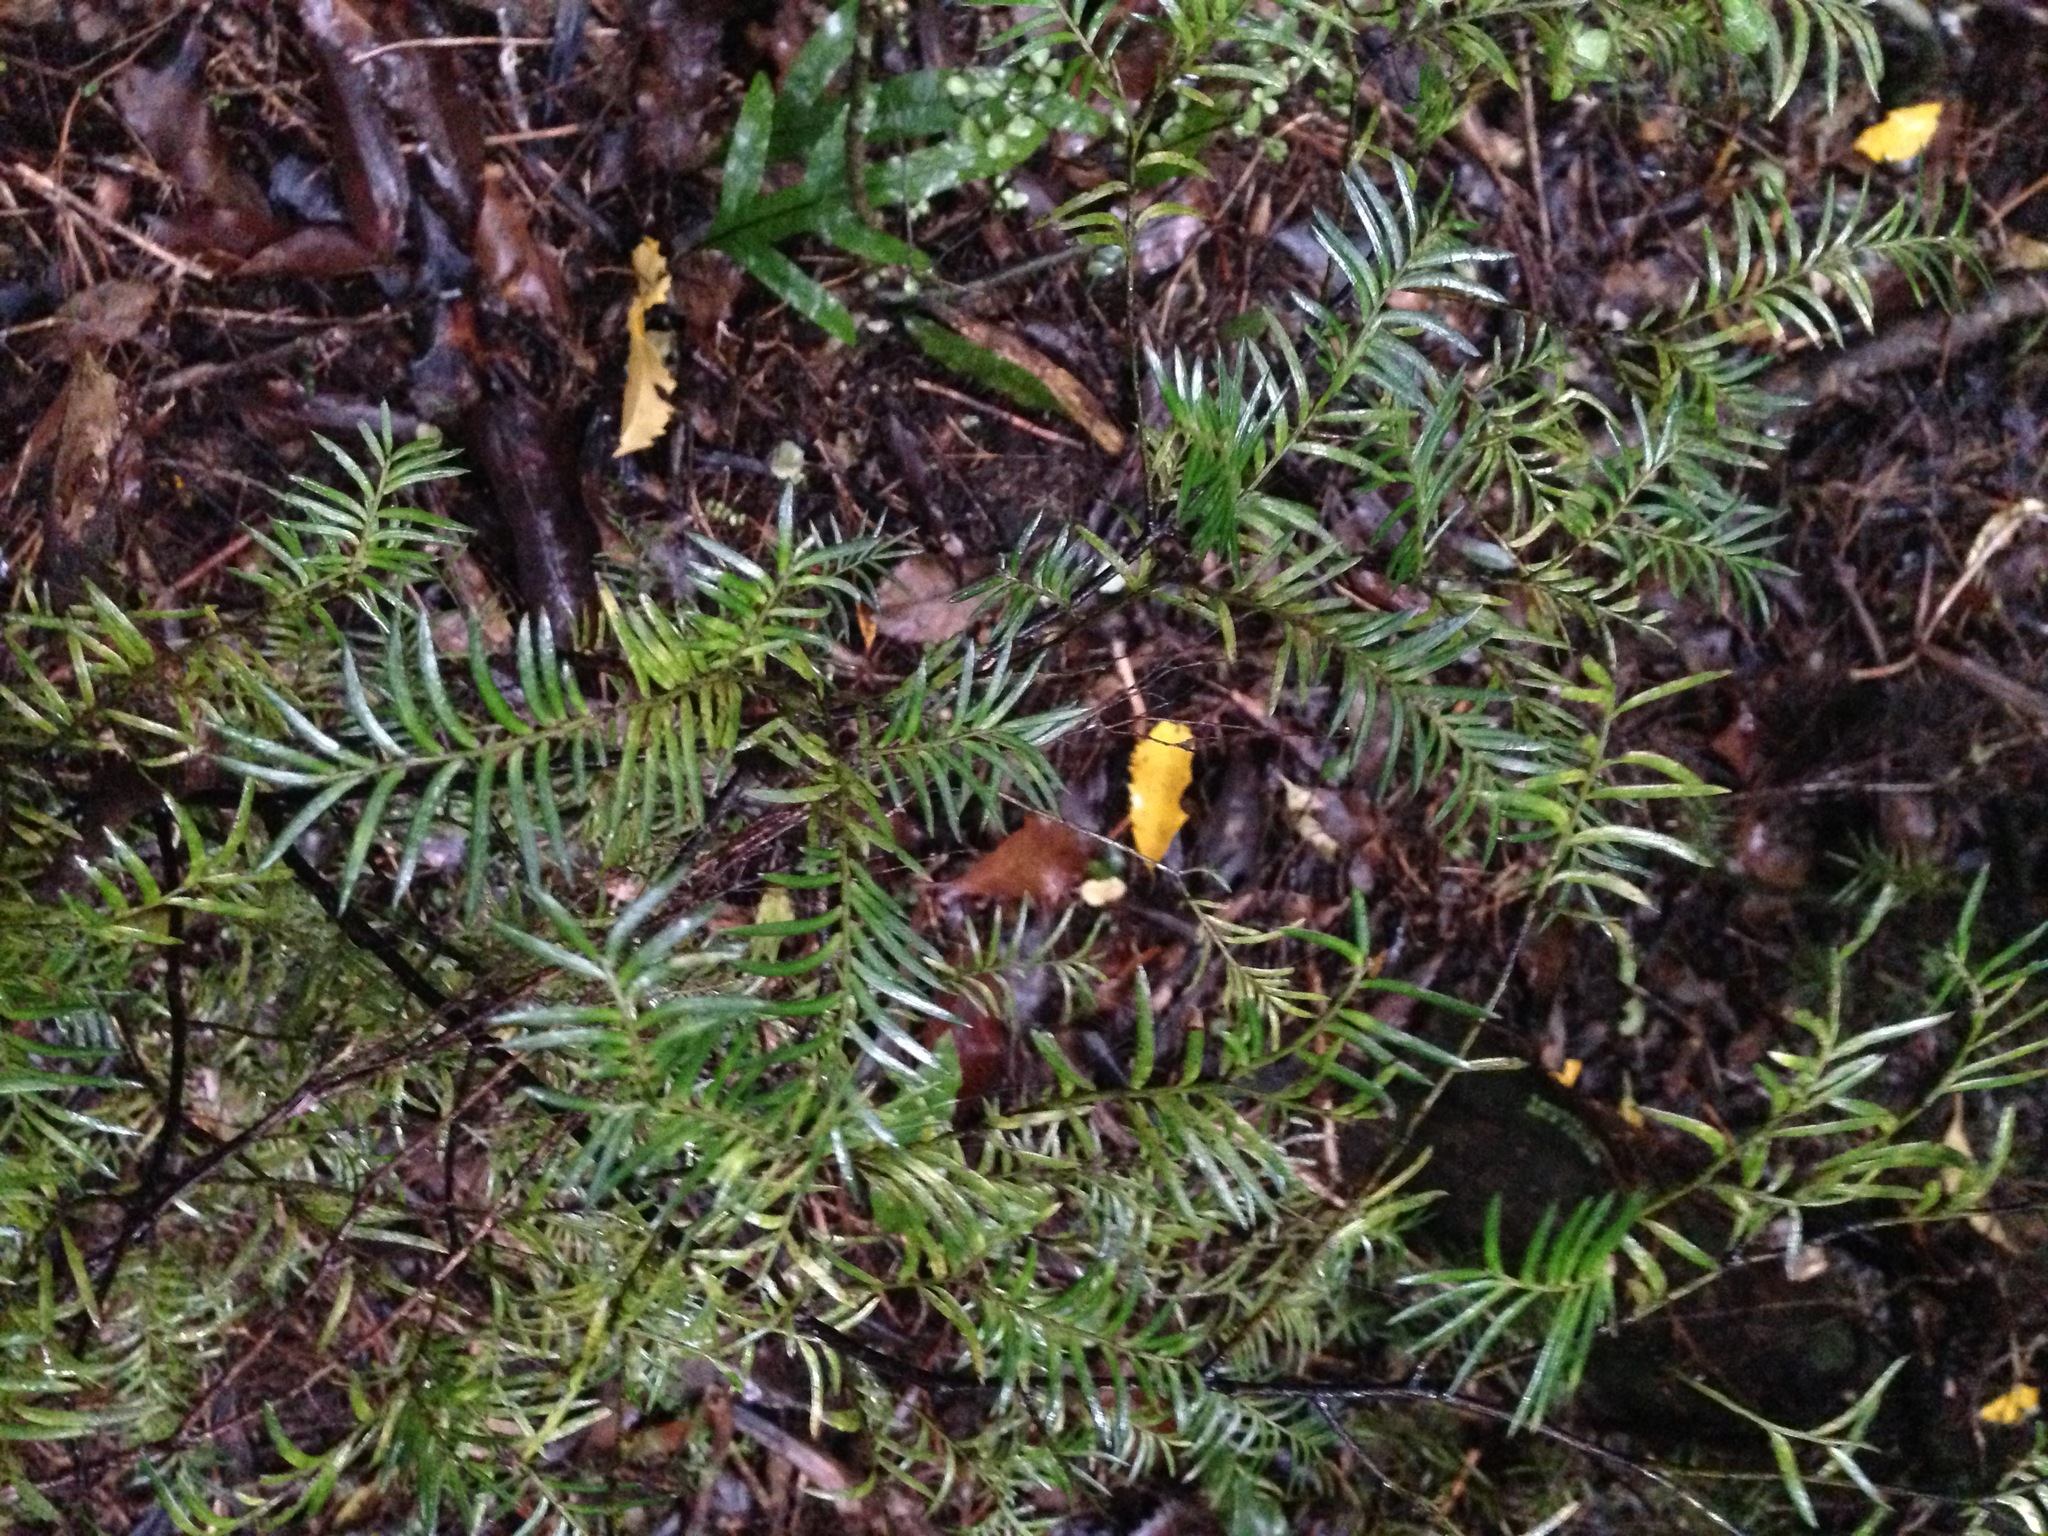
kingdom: Plantae
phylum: Tracheophyta
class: Pinopsida
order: Pinales
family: Podocarpaceae
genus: Prumnopitys
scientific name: Prumnopitys ferruginea
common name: Brown pine
